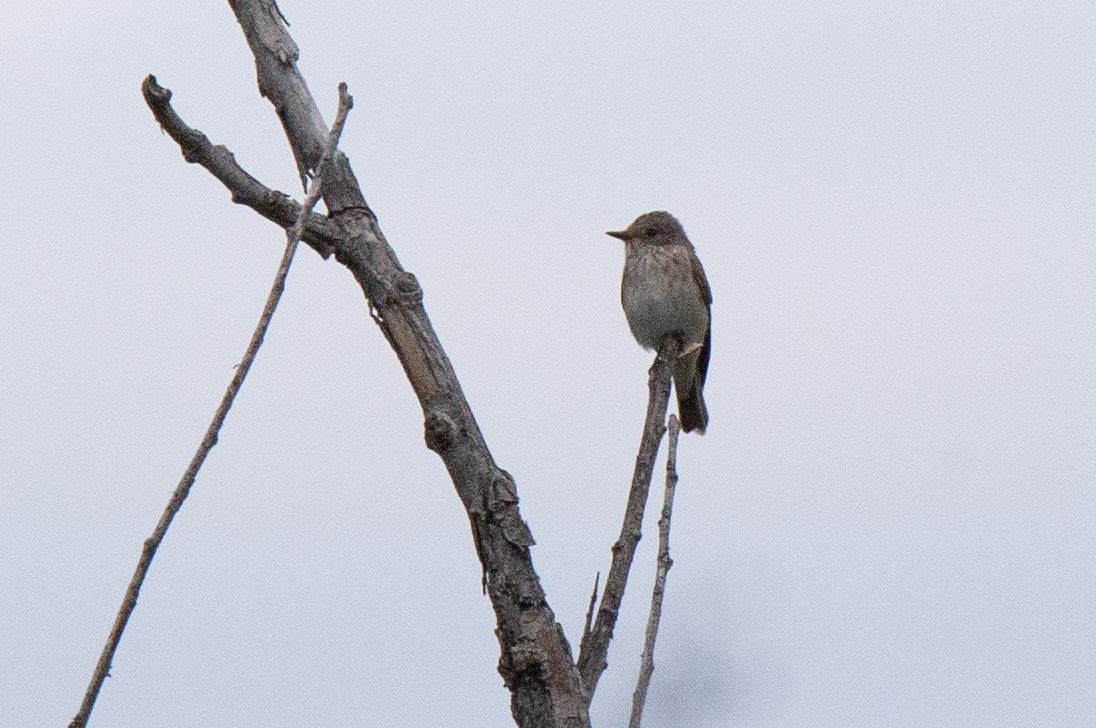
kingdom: Animalia
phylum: Chordata
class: Aves
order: Passeriformes
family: Muscicapidae
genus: Muscicapa
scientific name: Muscicapa striata
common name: Spotted flycatcher
